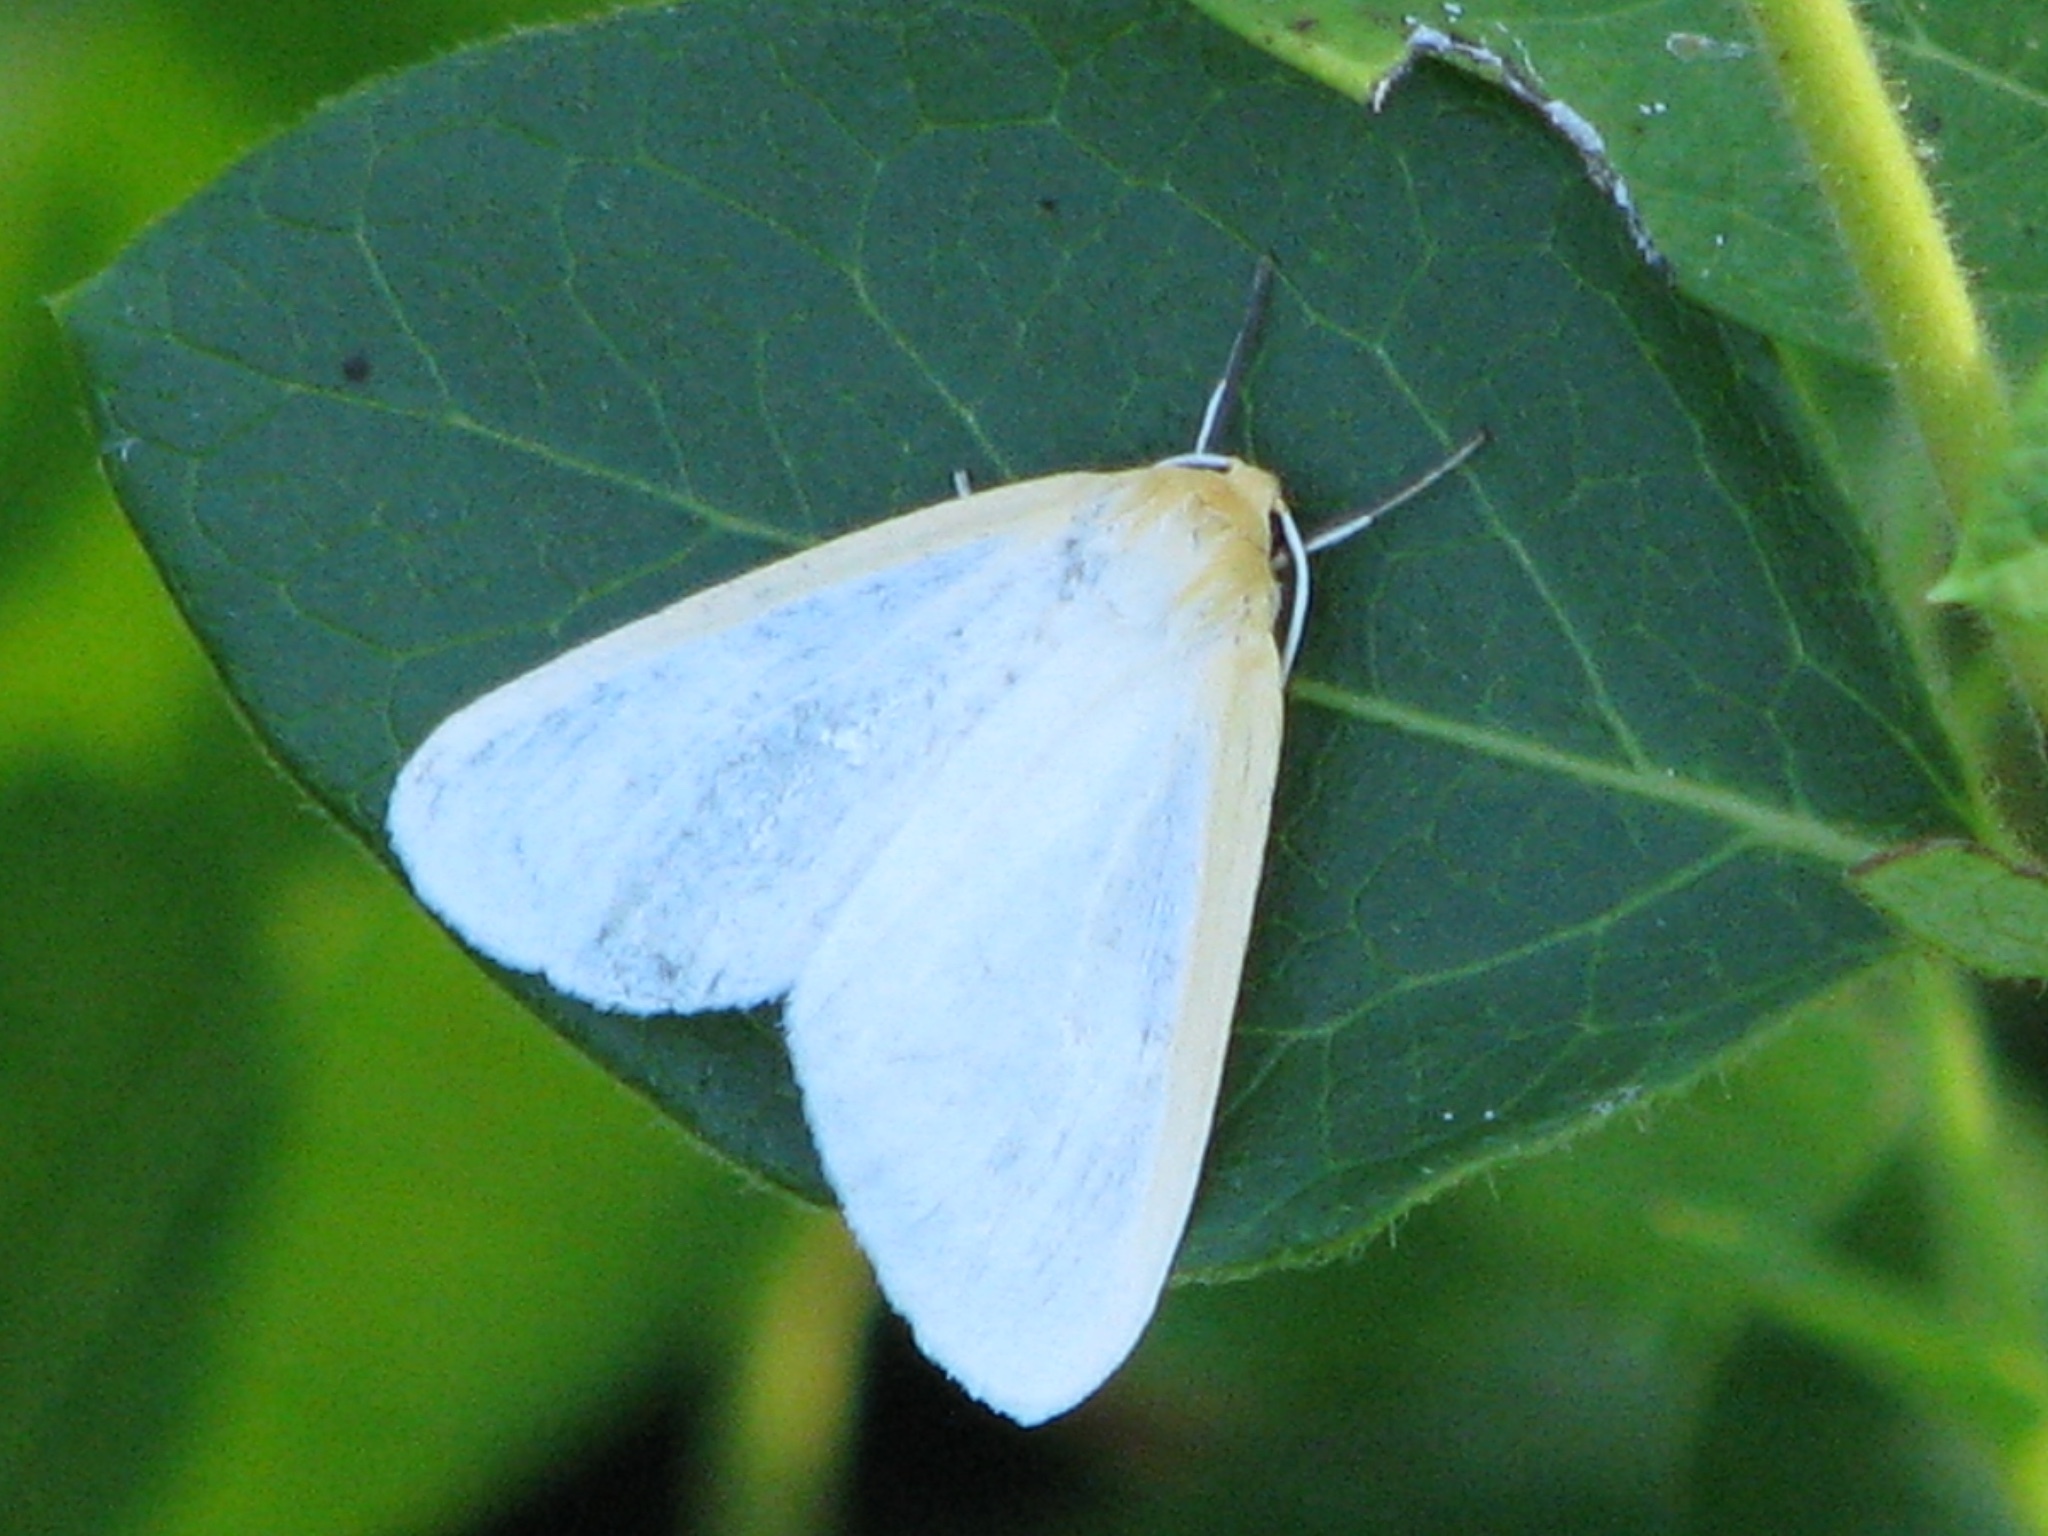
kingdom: Animalia
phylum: Arthropoda
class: Insecta
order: Lepidoptera
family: Erebidae
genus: Cycnia
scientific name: Cycnia tenera
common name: Delicate cycnia moth
